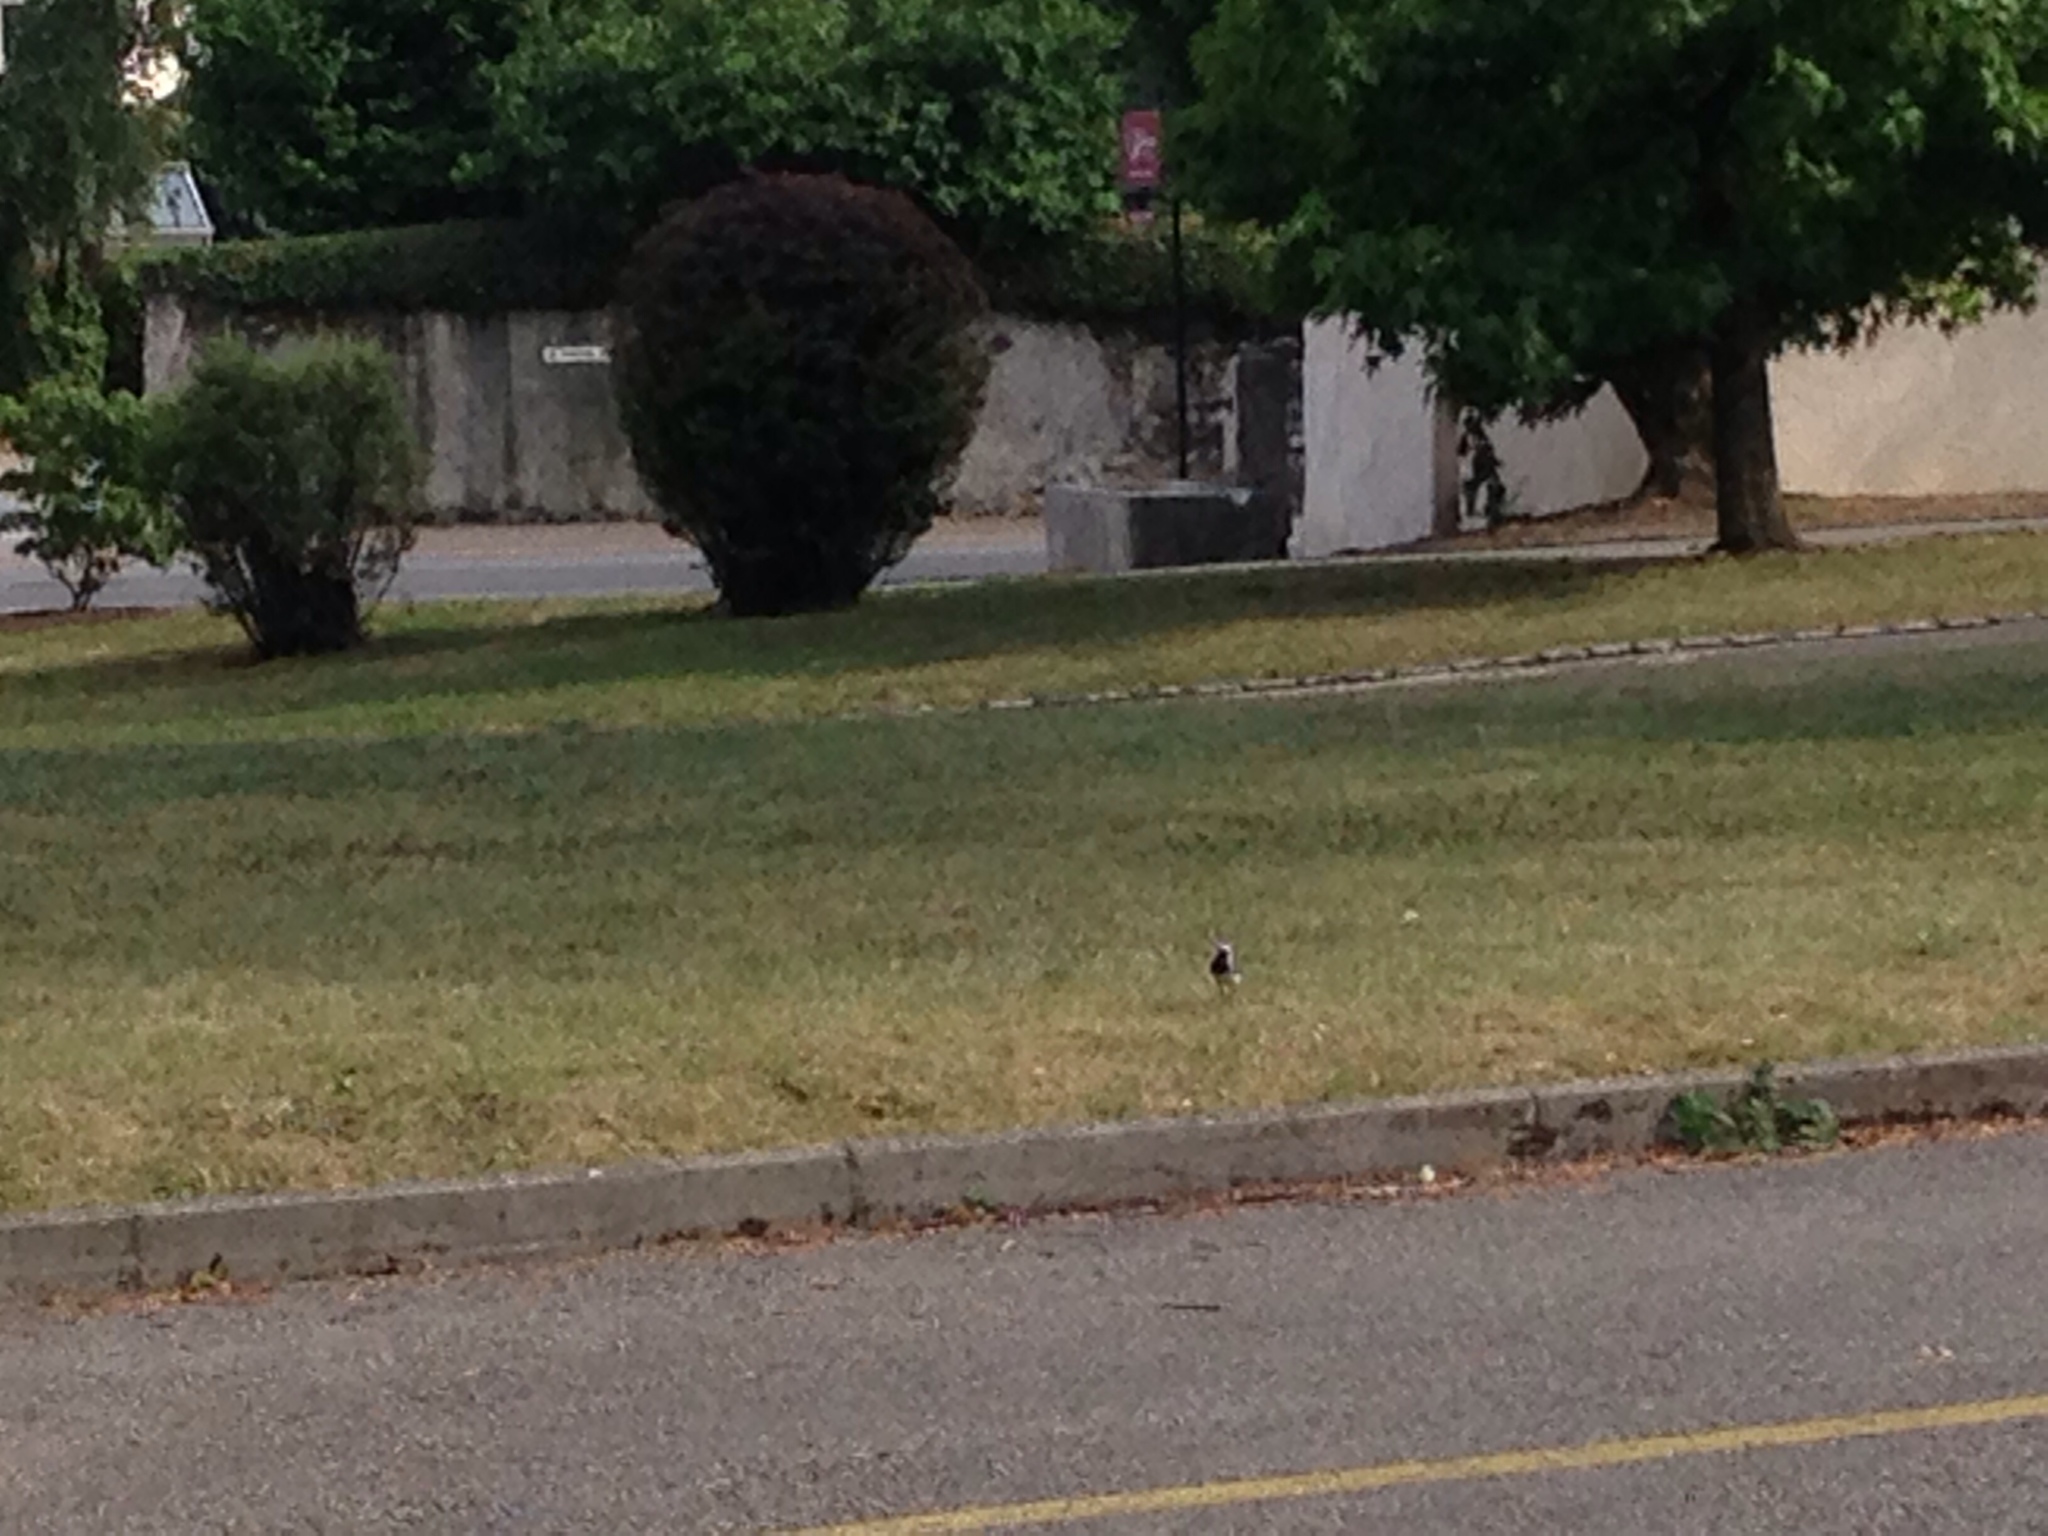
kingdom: Animalia
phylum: Chordata
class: Aves
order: Passeriformes
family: Motacillidae
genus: Motacilla
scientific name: Motacilla alba
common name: White wagtail
